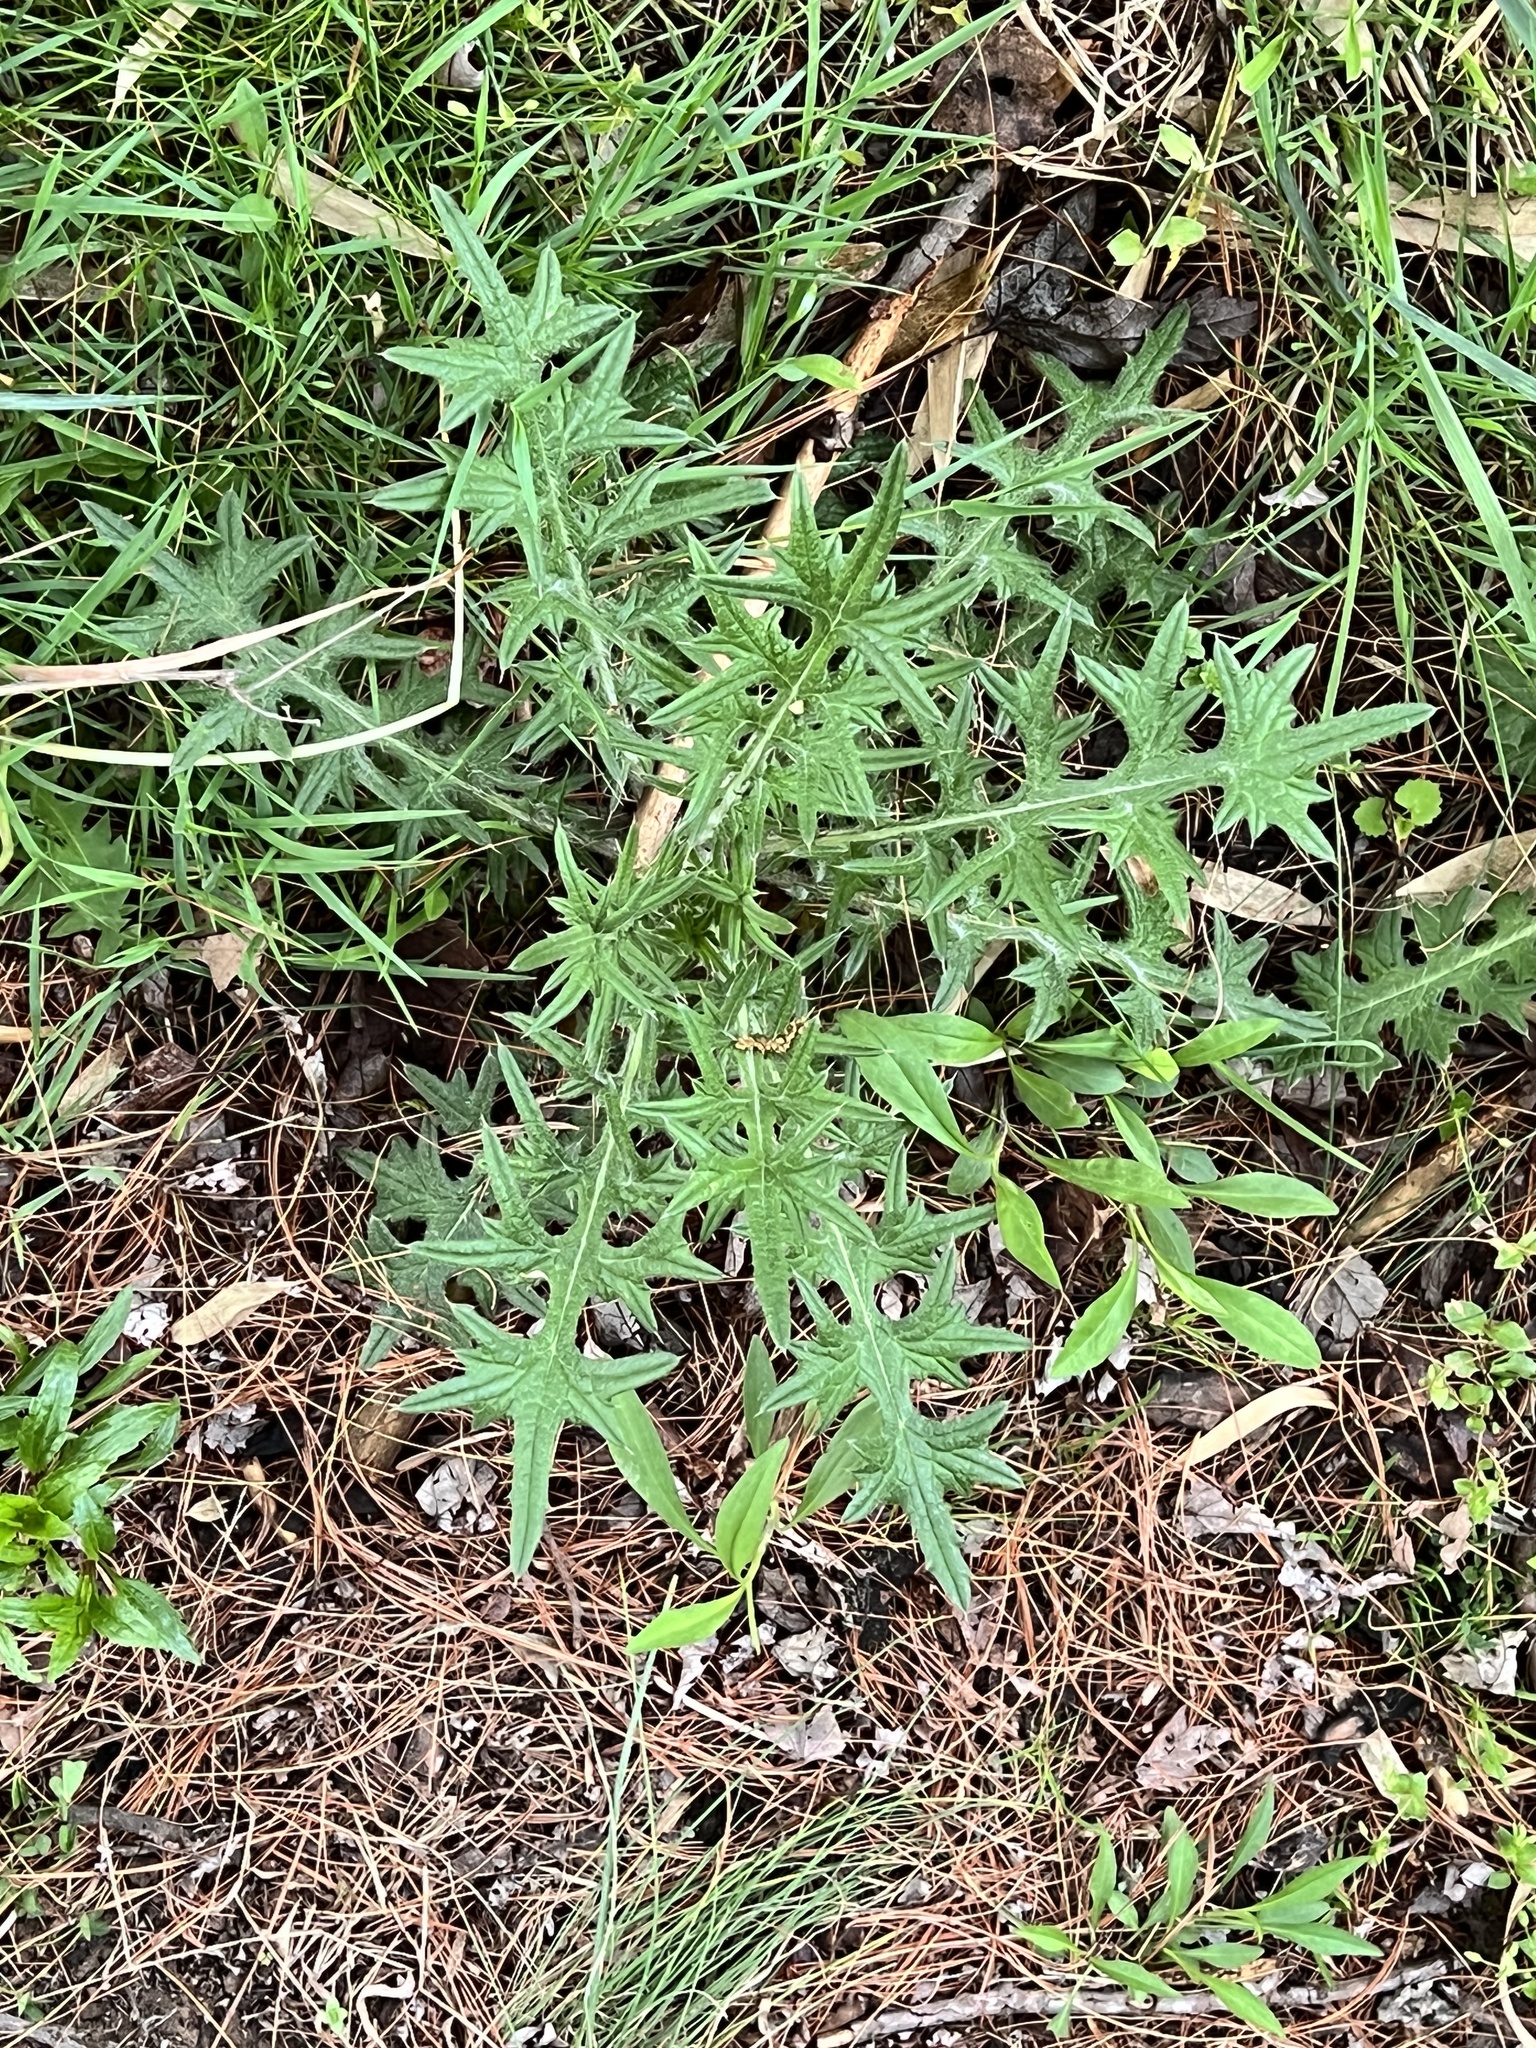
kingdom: Plantae
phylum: Tracheophyta
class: Magnoliopsida
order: Asterales
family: Asteraceae
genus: Cirsium
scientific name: Cirsium vulgare
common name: Bull thistle
